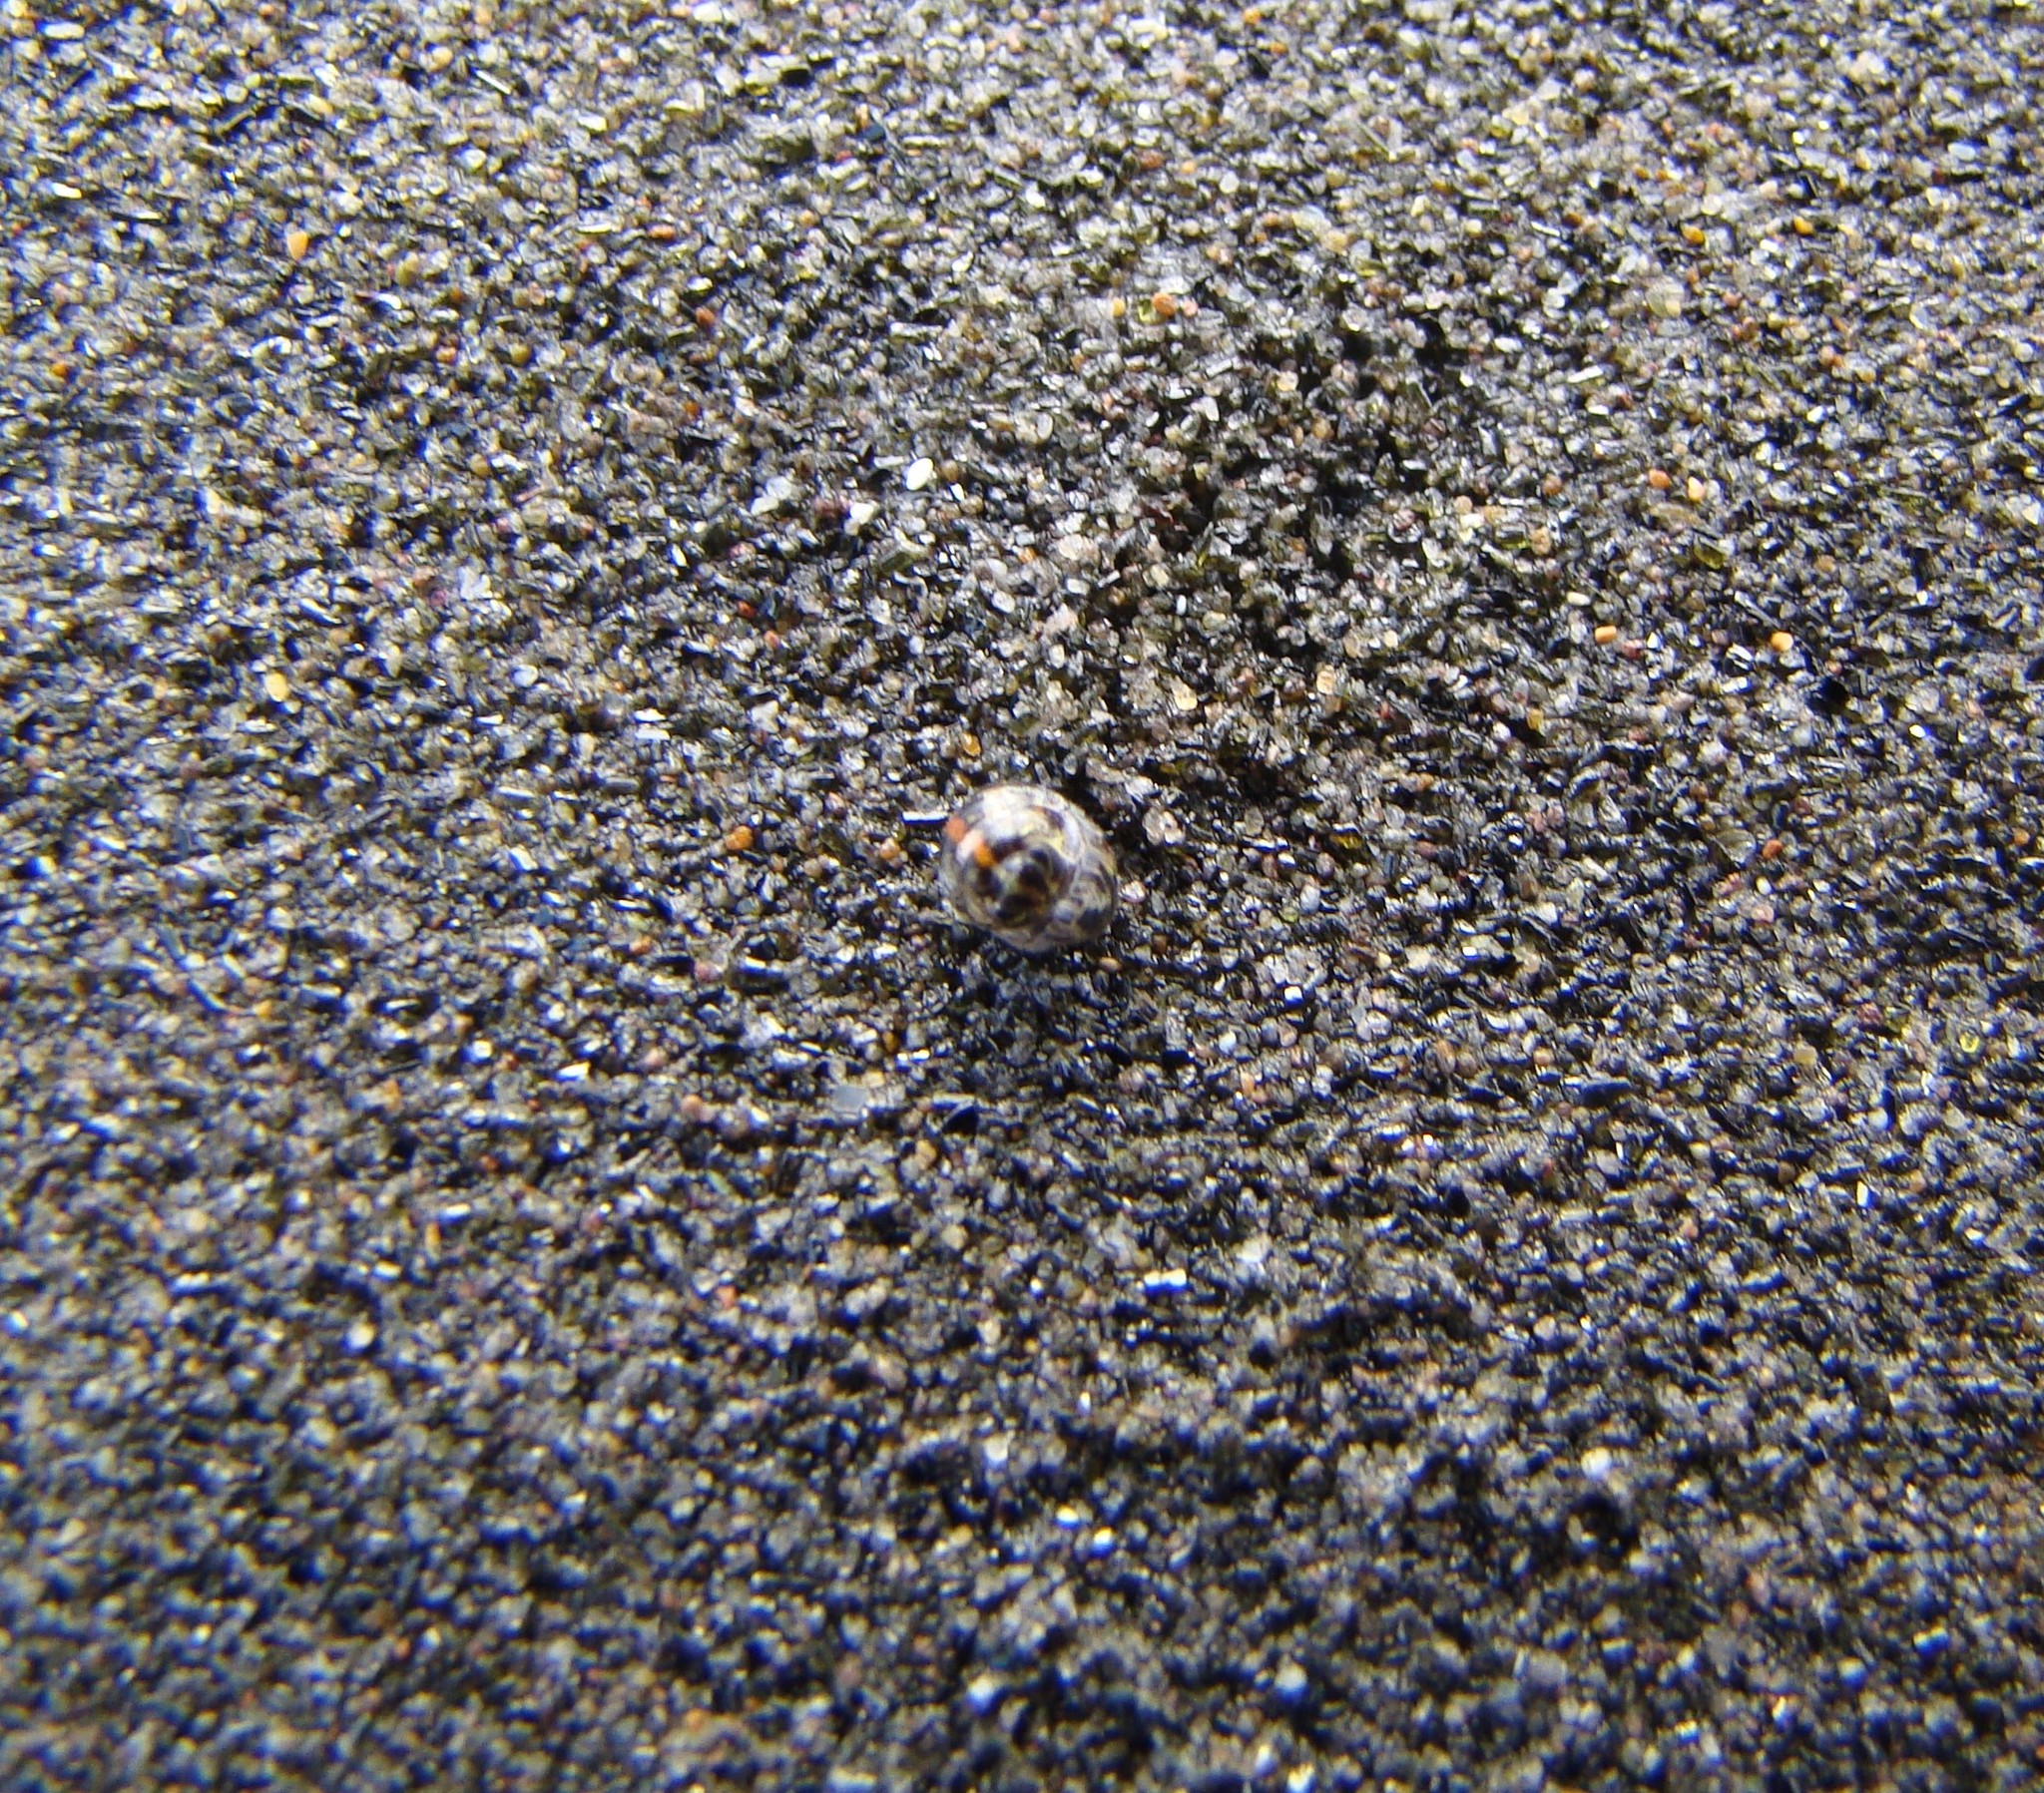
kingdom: Animalia
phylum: Arthropoda
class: Malacostraca
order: Isopoda
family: Scyphacidae
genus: Actaecia
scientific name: Actaecia euchroa
